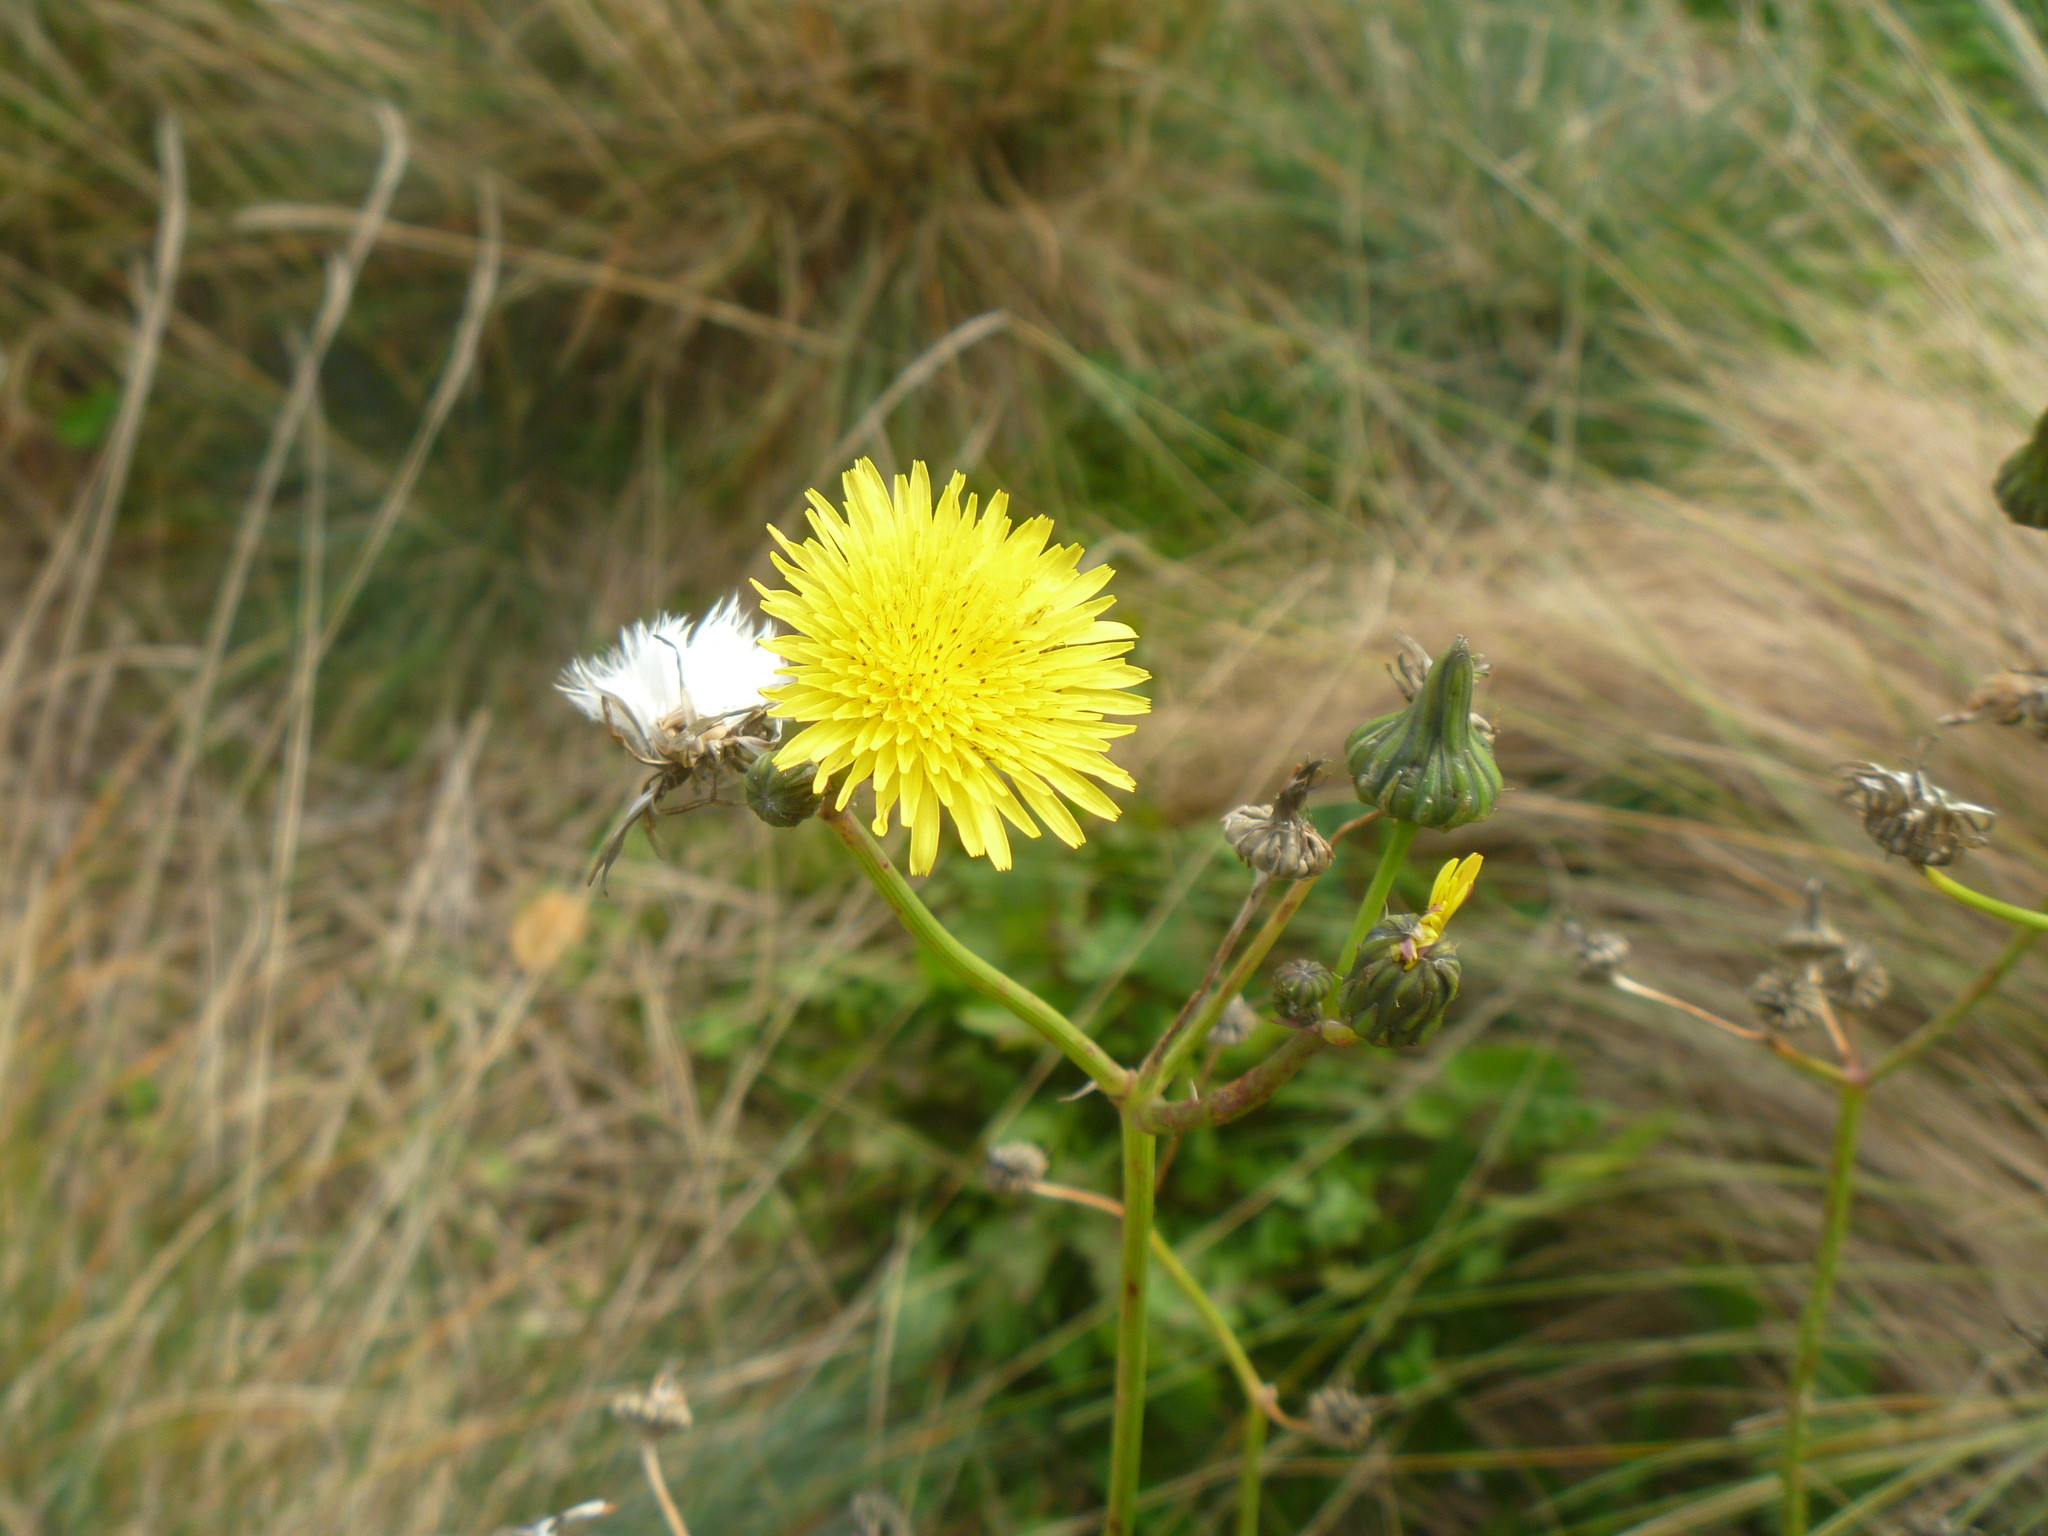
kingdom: Plantae
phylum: Tracheophyta
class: Magnoliopsida
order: Asterales
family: Asteraceae
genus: Sonchus
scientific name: Sonchus oleraceus
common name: Common sowthistle
